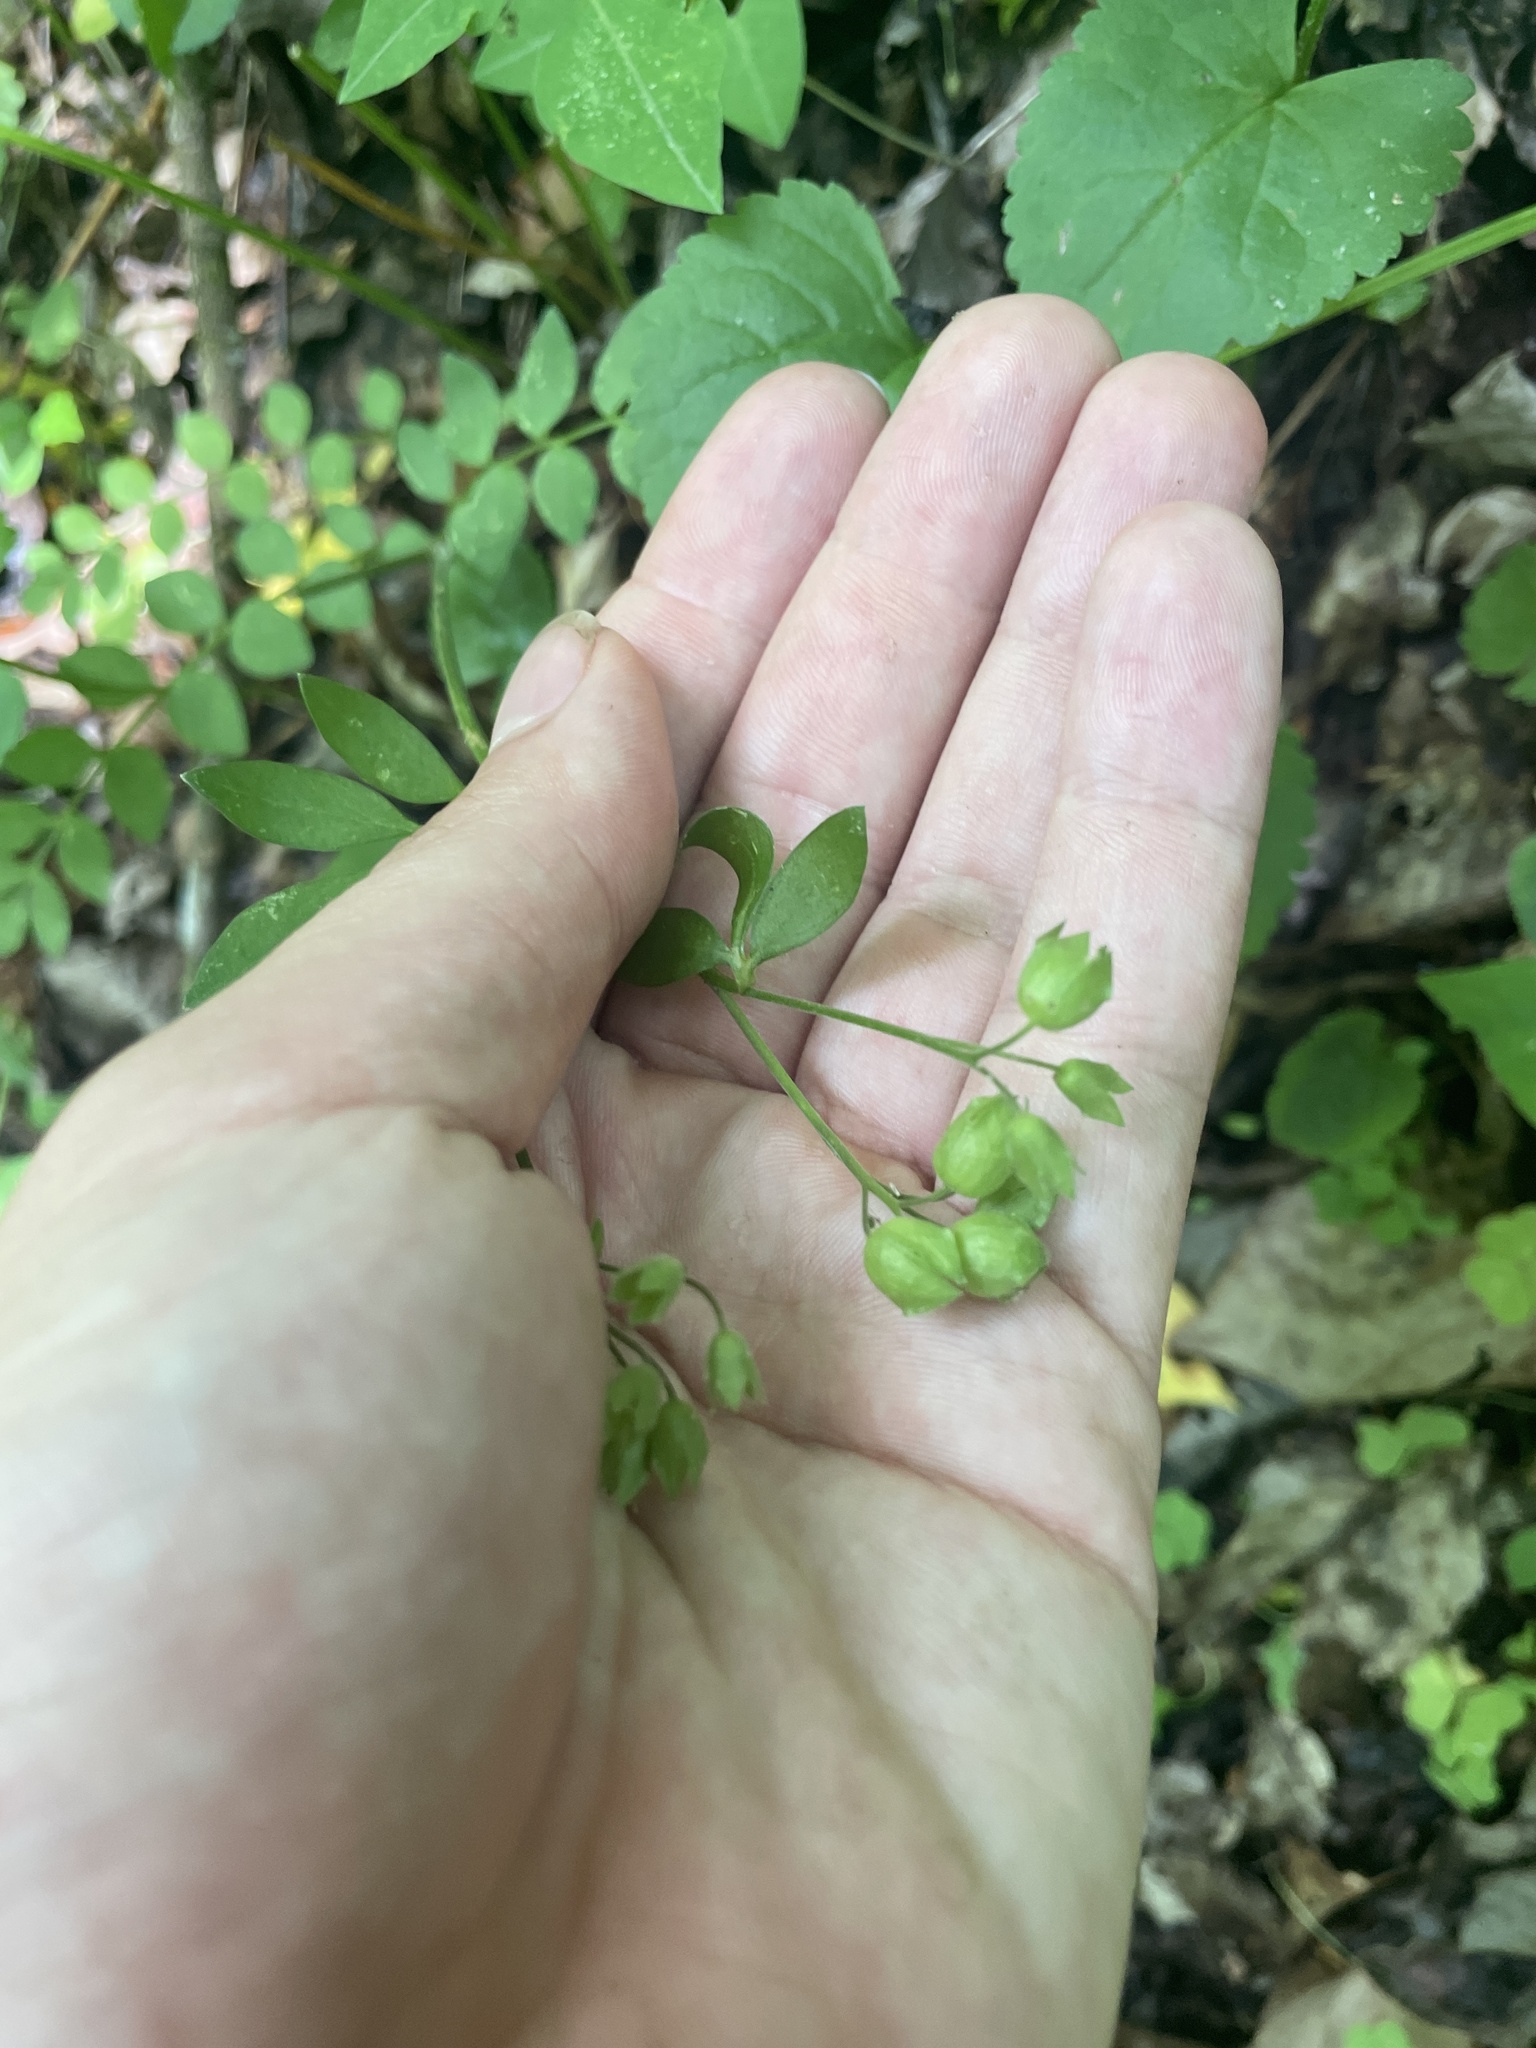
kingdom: Plantae
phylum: Tracheophyta
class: Magnoliopsida
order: Ericales
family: Polemoniaceae
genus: Polemonium
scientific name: Polemonium reptans
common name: Creeping jacob's-ladder
